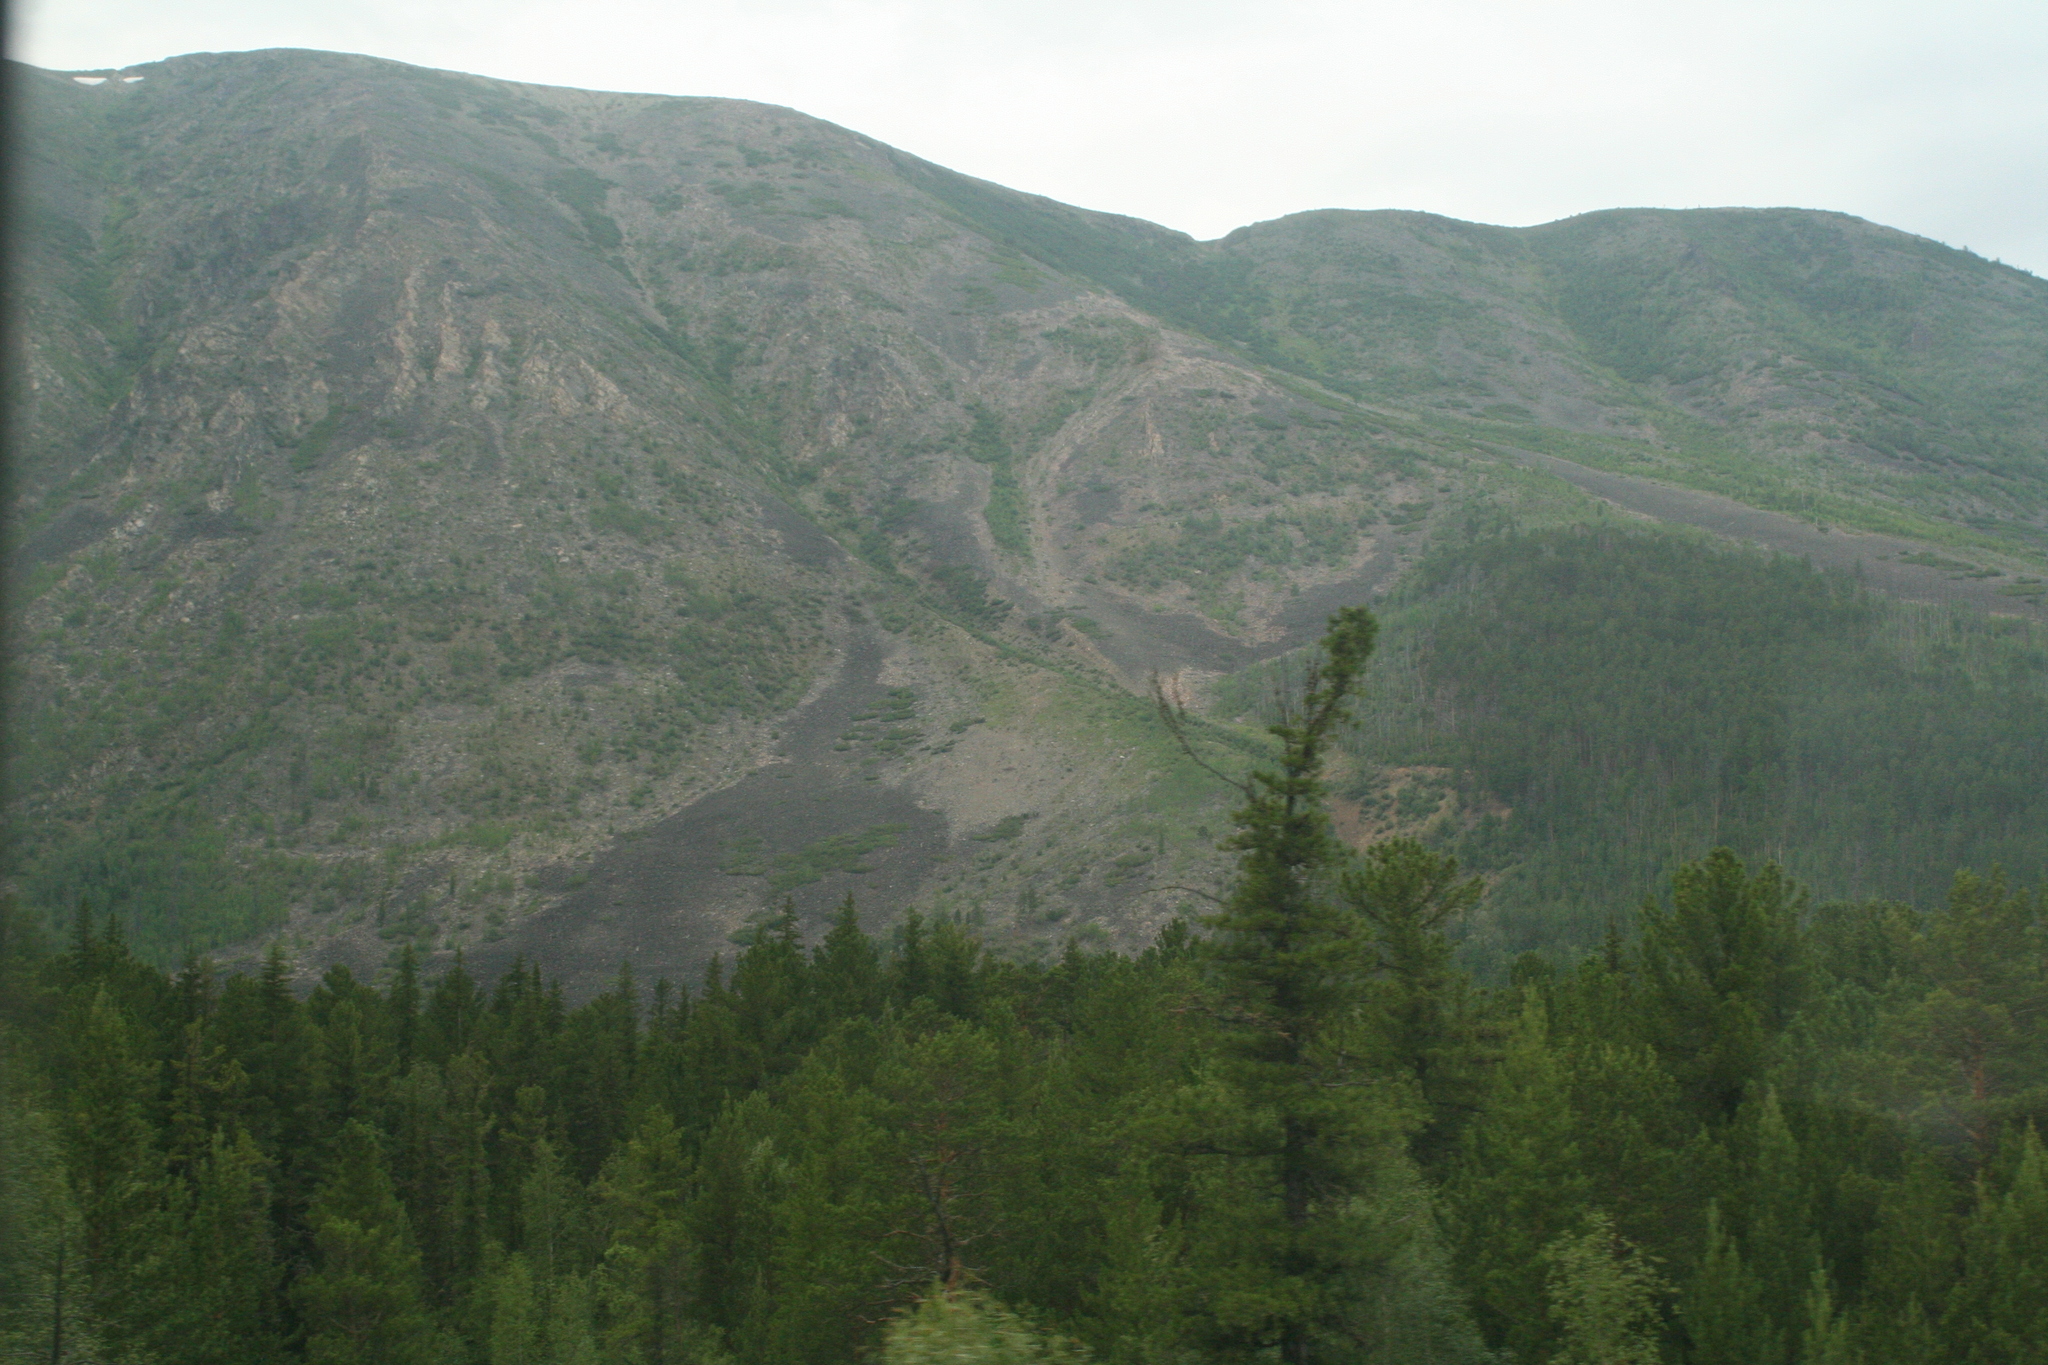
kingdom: Plantae
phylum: Tracheophyta
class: Pinopsida
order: Pinales
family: Pinaceae
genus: Picea
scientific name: Picea obovata
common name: Siberian spruce
